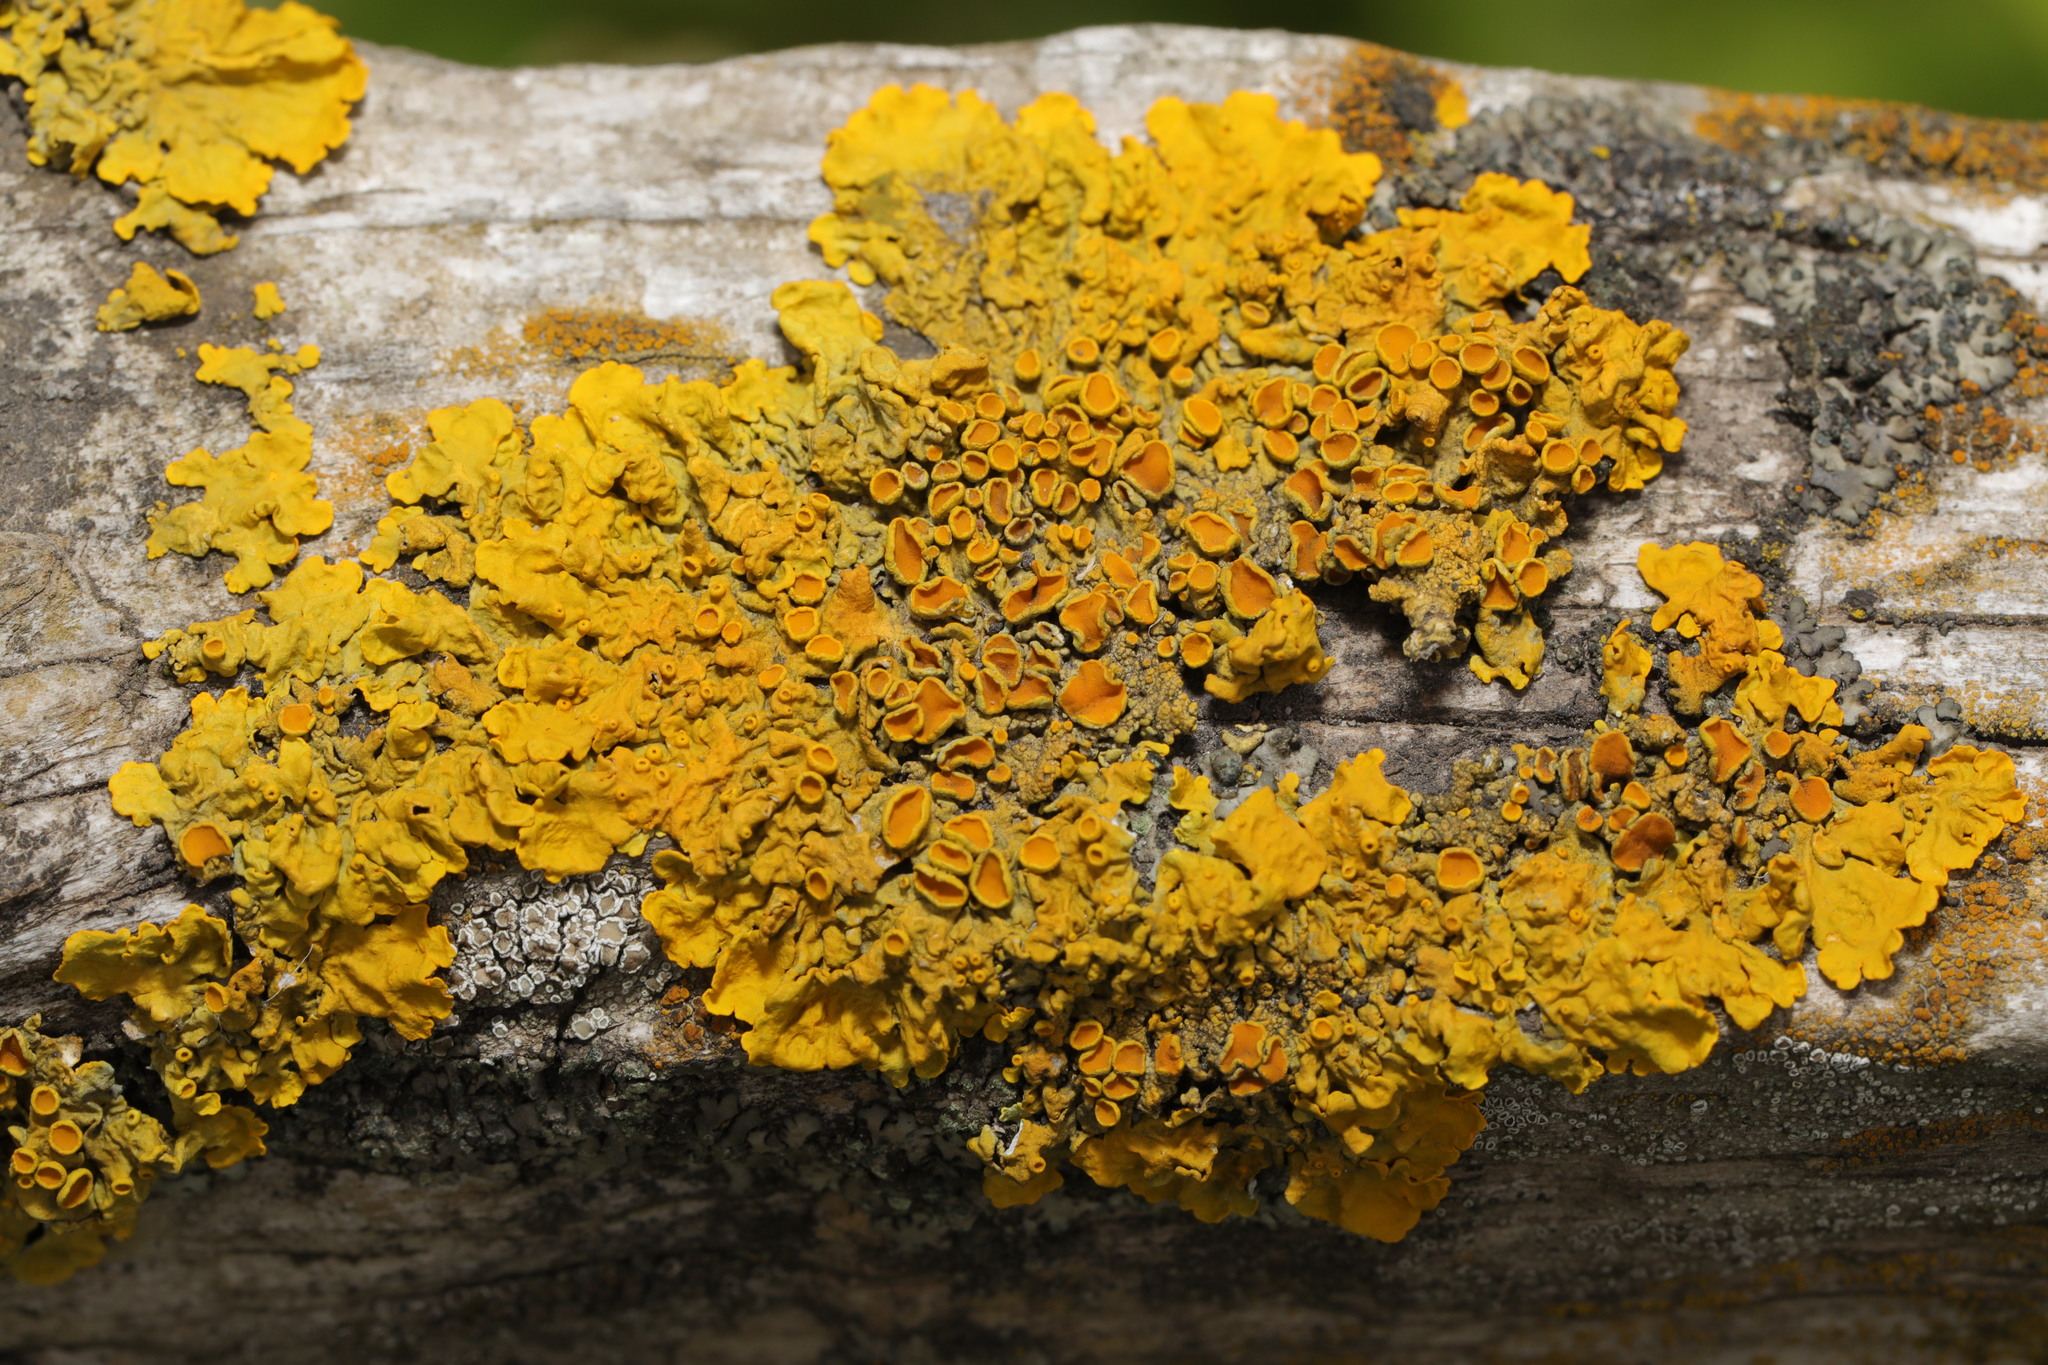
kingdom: Fungi
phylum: Ascomycota
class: Lecanoromycetes
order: Teloschistales
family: Teloschistaceae
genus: Xanthoria
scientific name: Xanthoria parietina
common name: Common orange lichen
